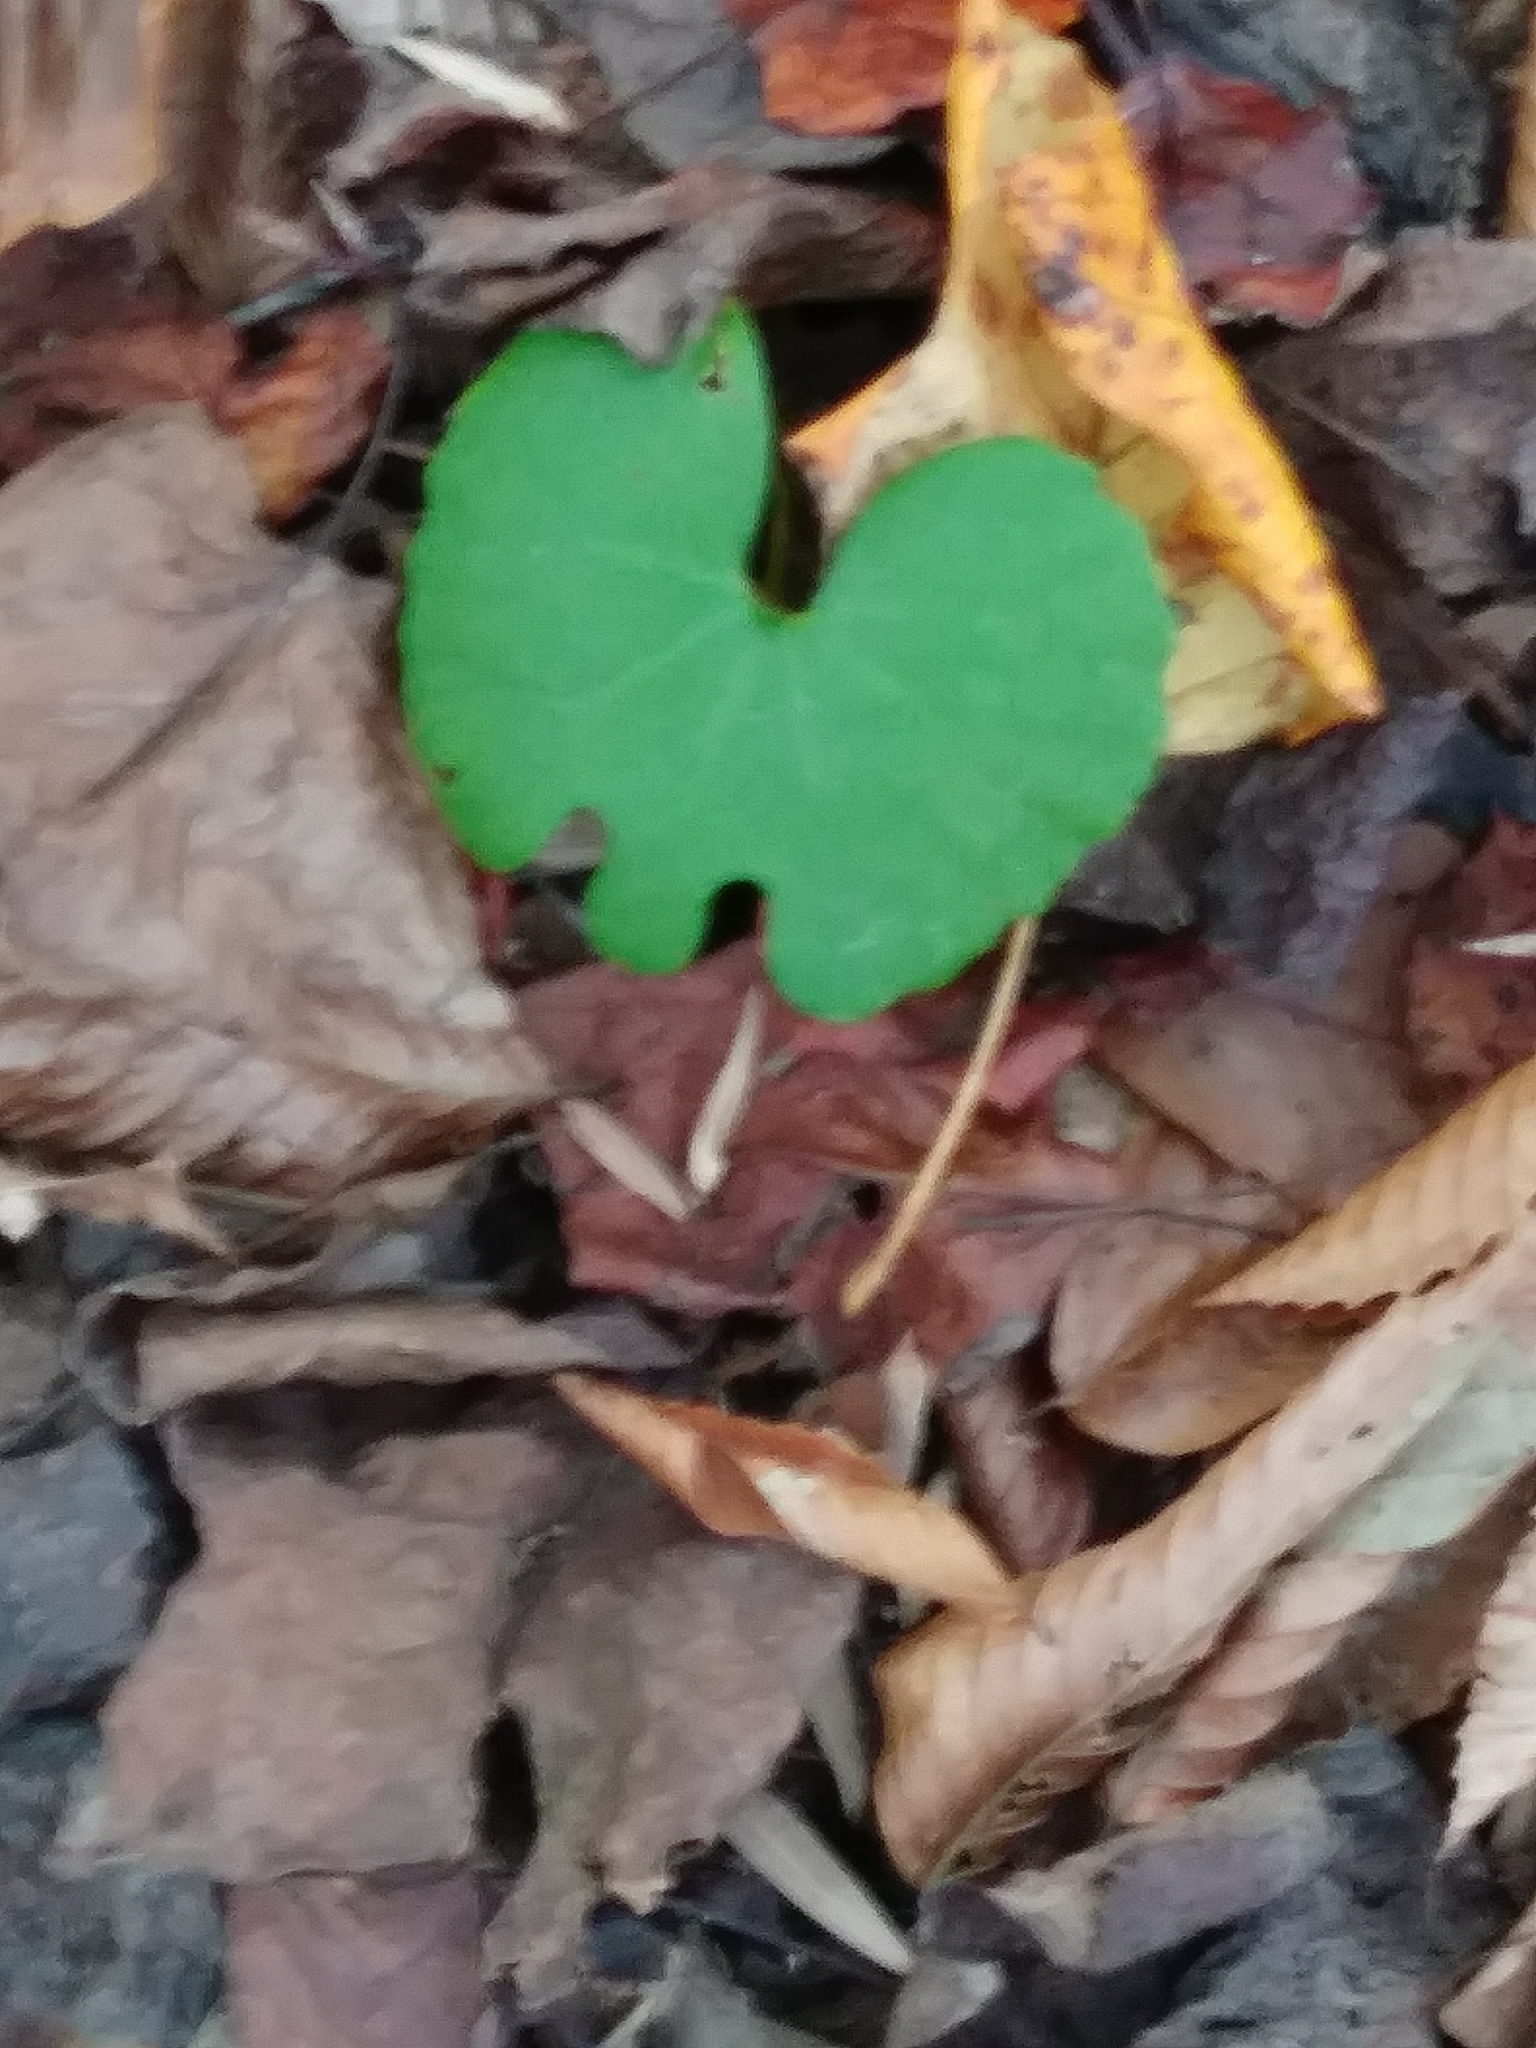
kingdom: Plantae
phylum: Tracheophyta
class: Magnoliopsida
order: Ranunculales
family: Papaveraceae
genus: Sanguinaria
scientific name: Sanguinaria canadensis
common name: Bloodroot
